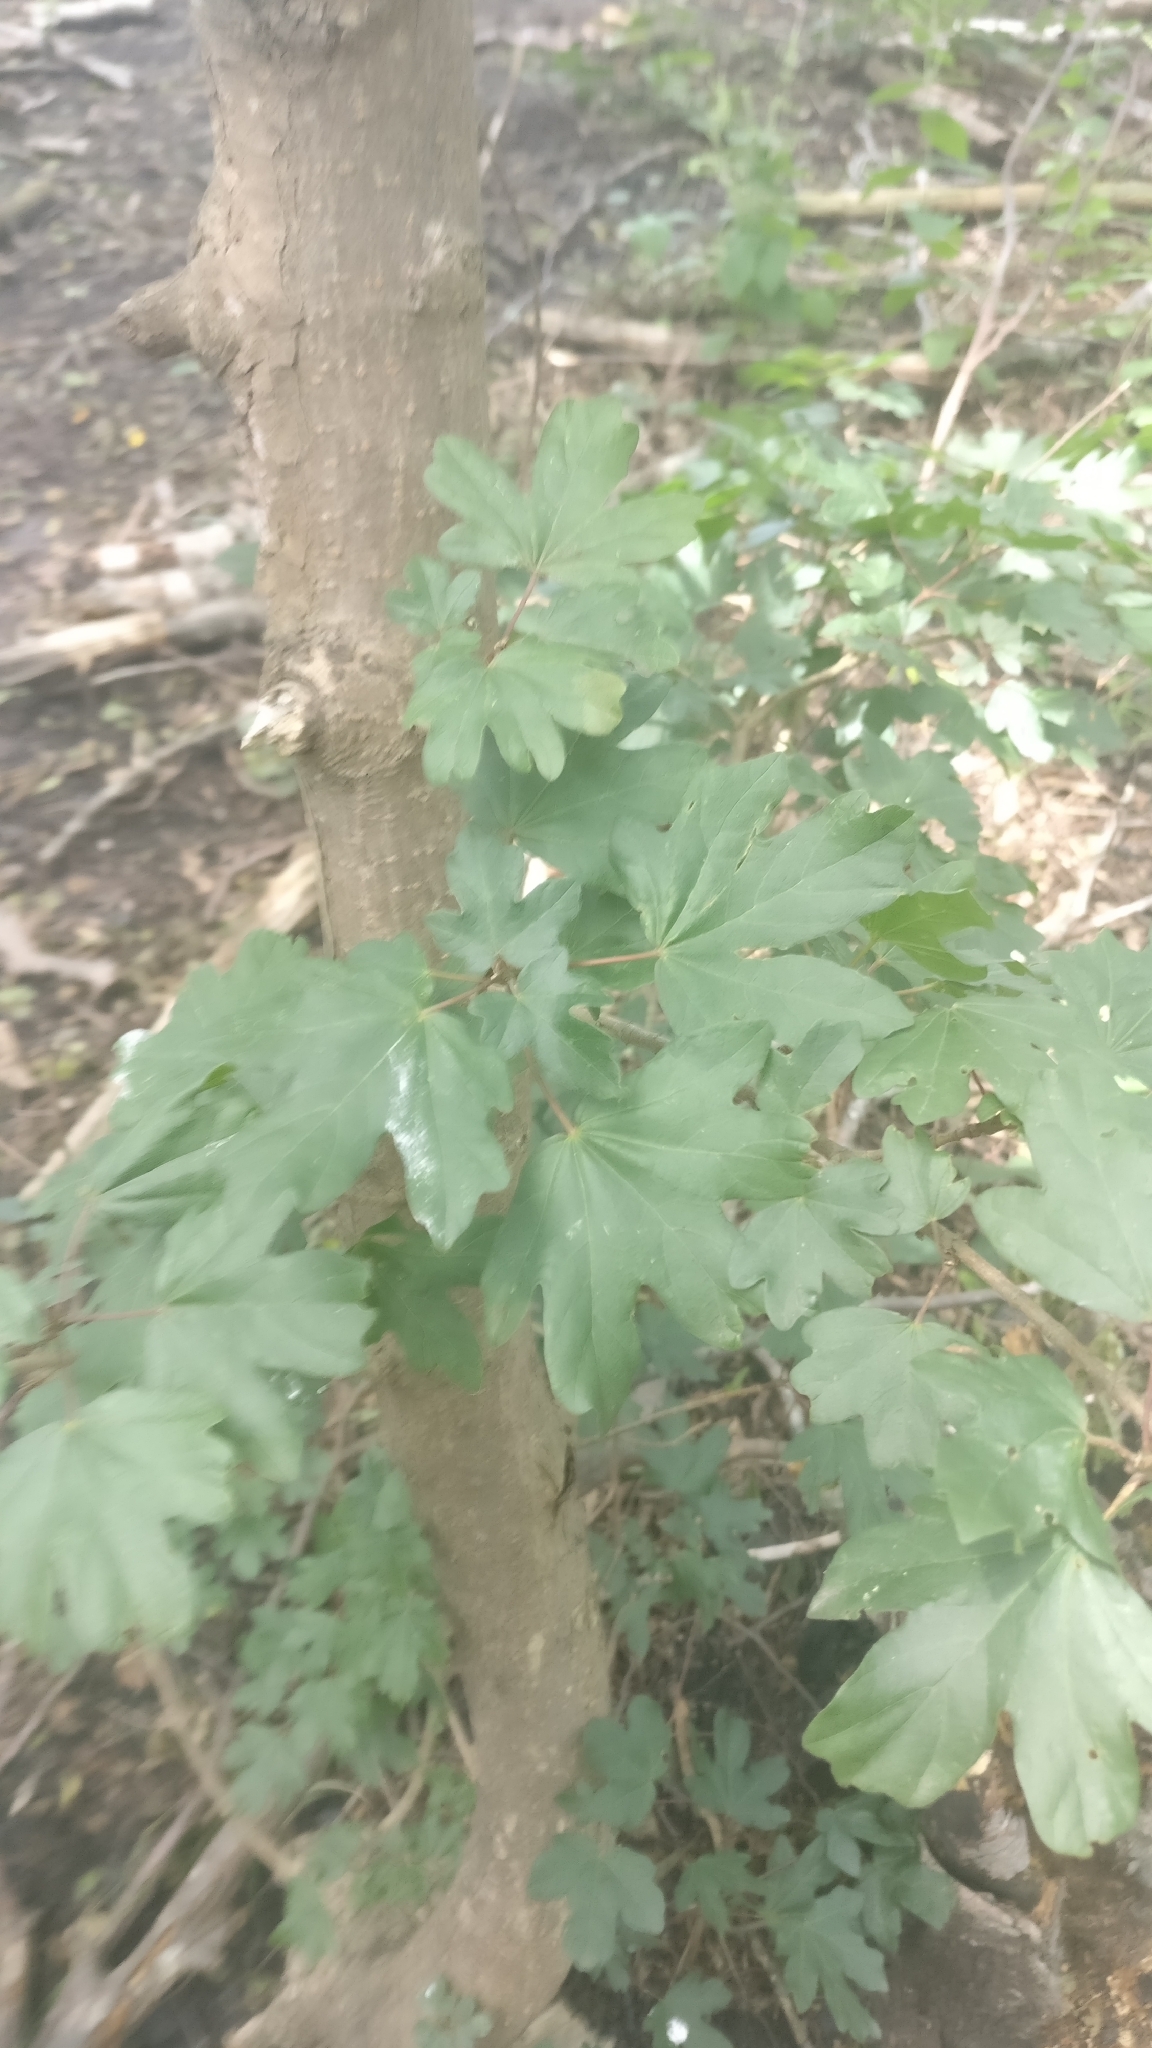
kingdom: Plantae
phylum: Tracheophyta
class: Magnoliopsida
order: Sapindales
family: Sapindaceae
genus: Acer
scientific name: Acer campestre
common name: Field maple
